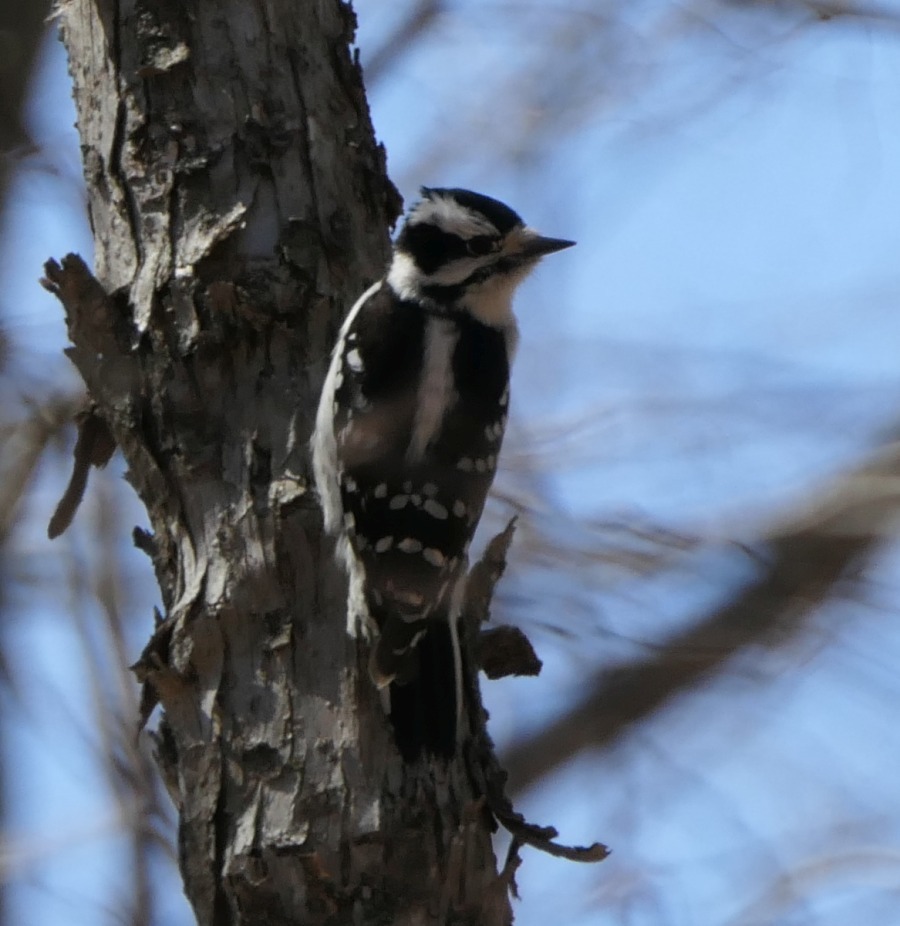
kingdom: Animalia
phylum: Chordata
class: Aves
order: Piciformes
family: Picidae
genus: Dryobates
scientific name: Dryobates pubescens
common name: Downy woodpecker
